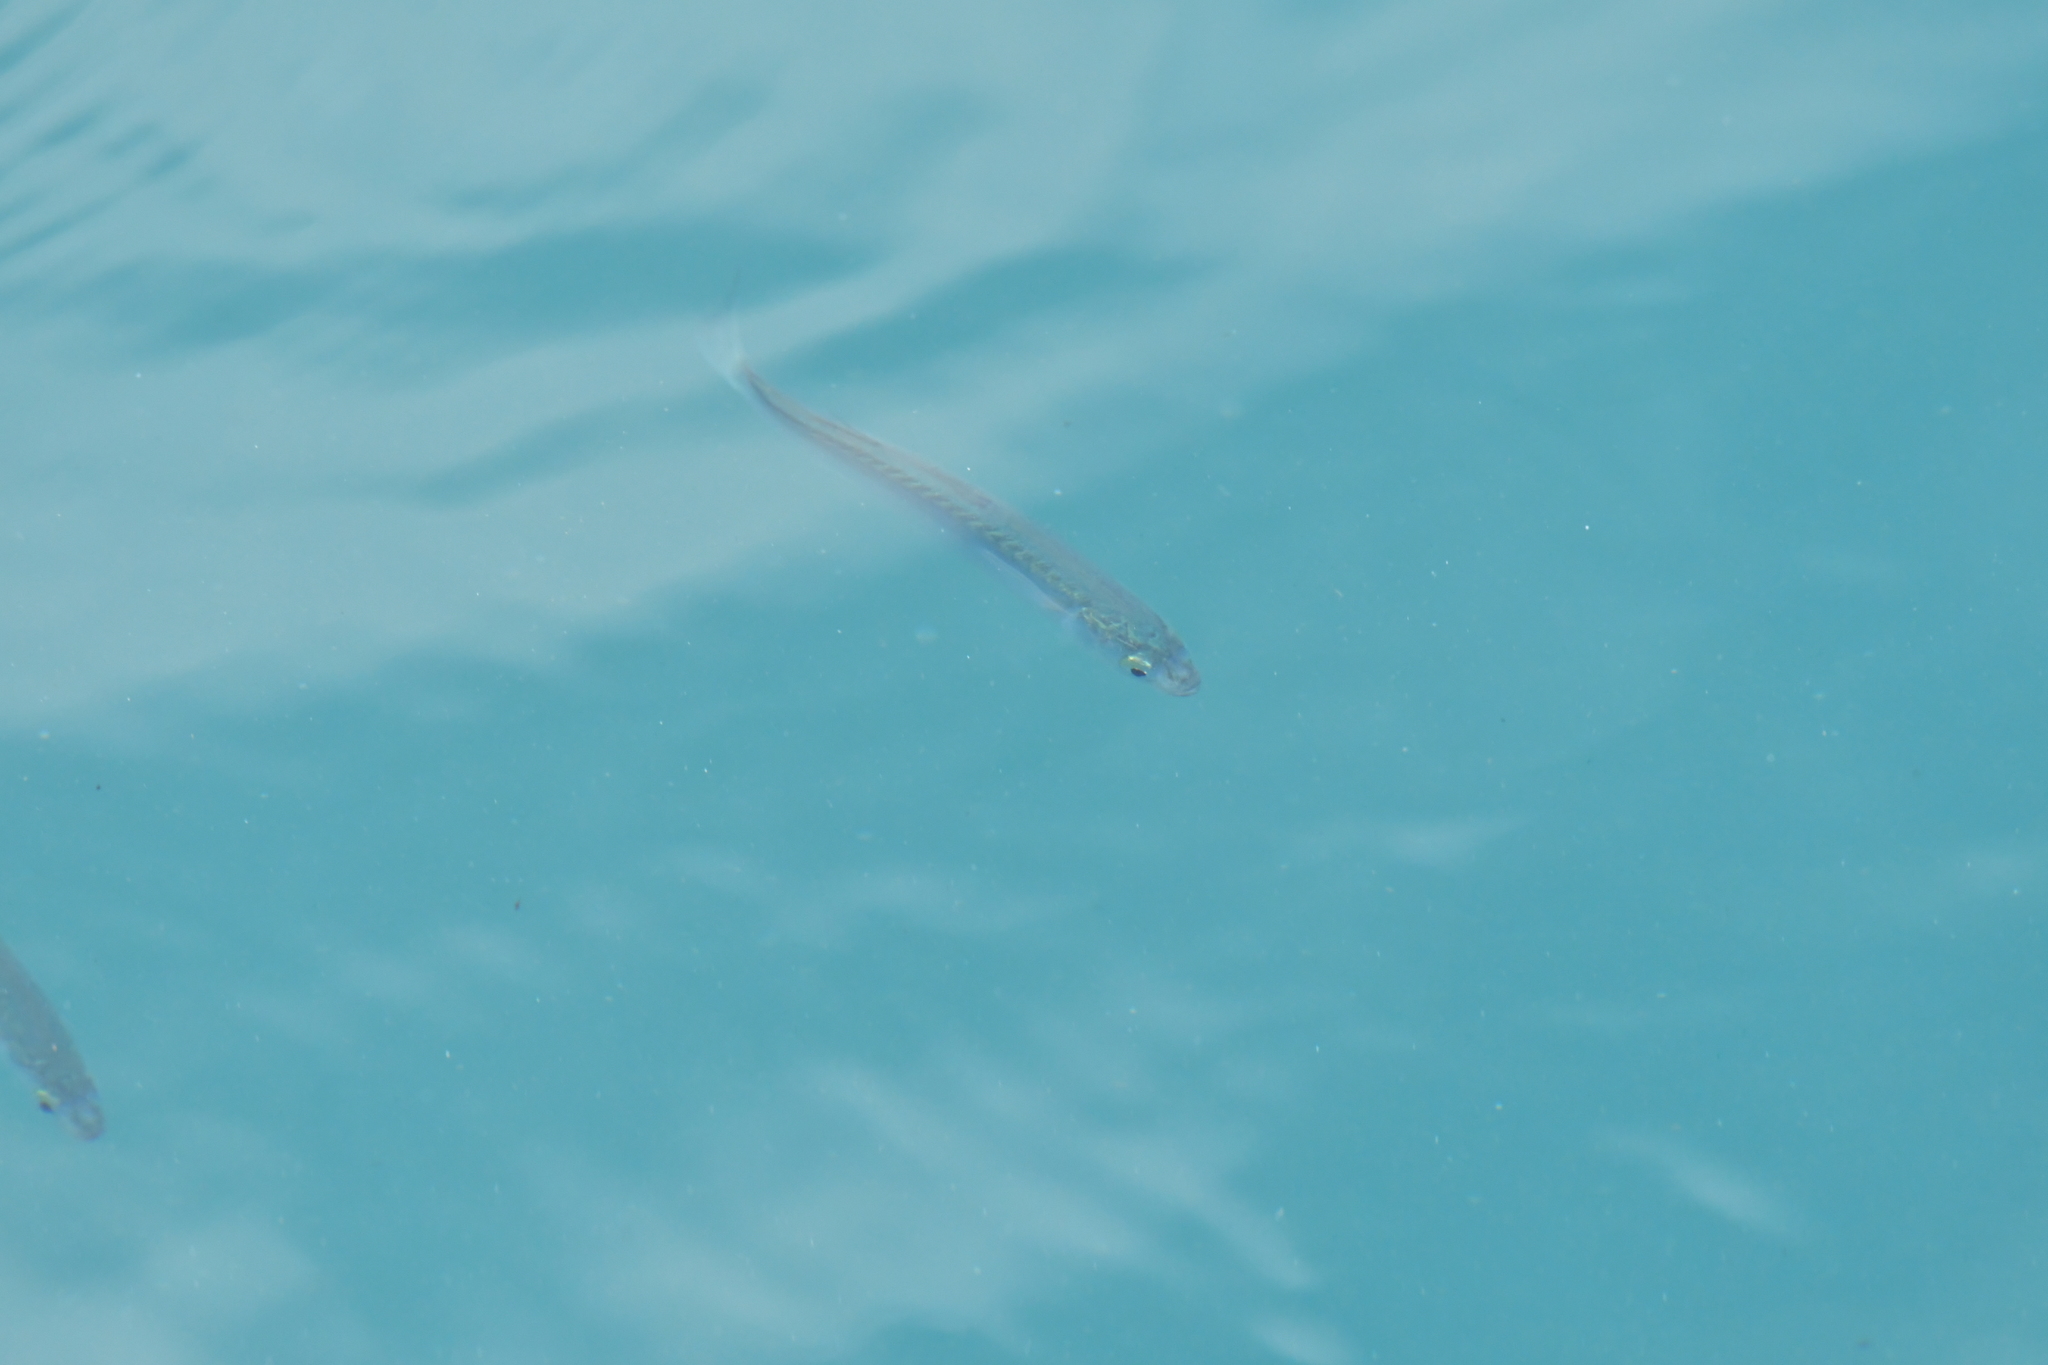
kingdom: Animalia
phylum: Chordata
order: Mugiliformes
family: Mugilidae
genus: Aldrichetta
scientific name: Aldrichetta forsteri
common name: Yellow-eye mullet
